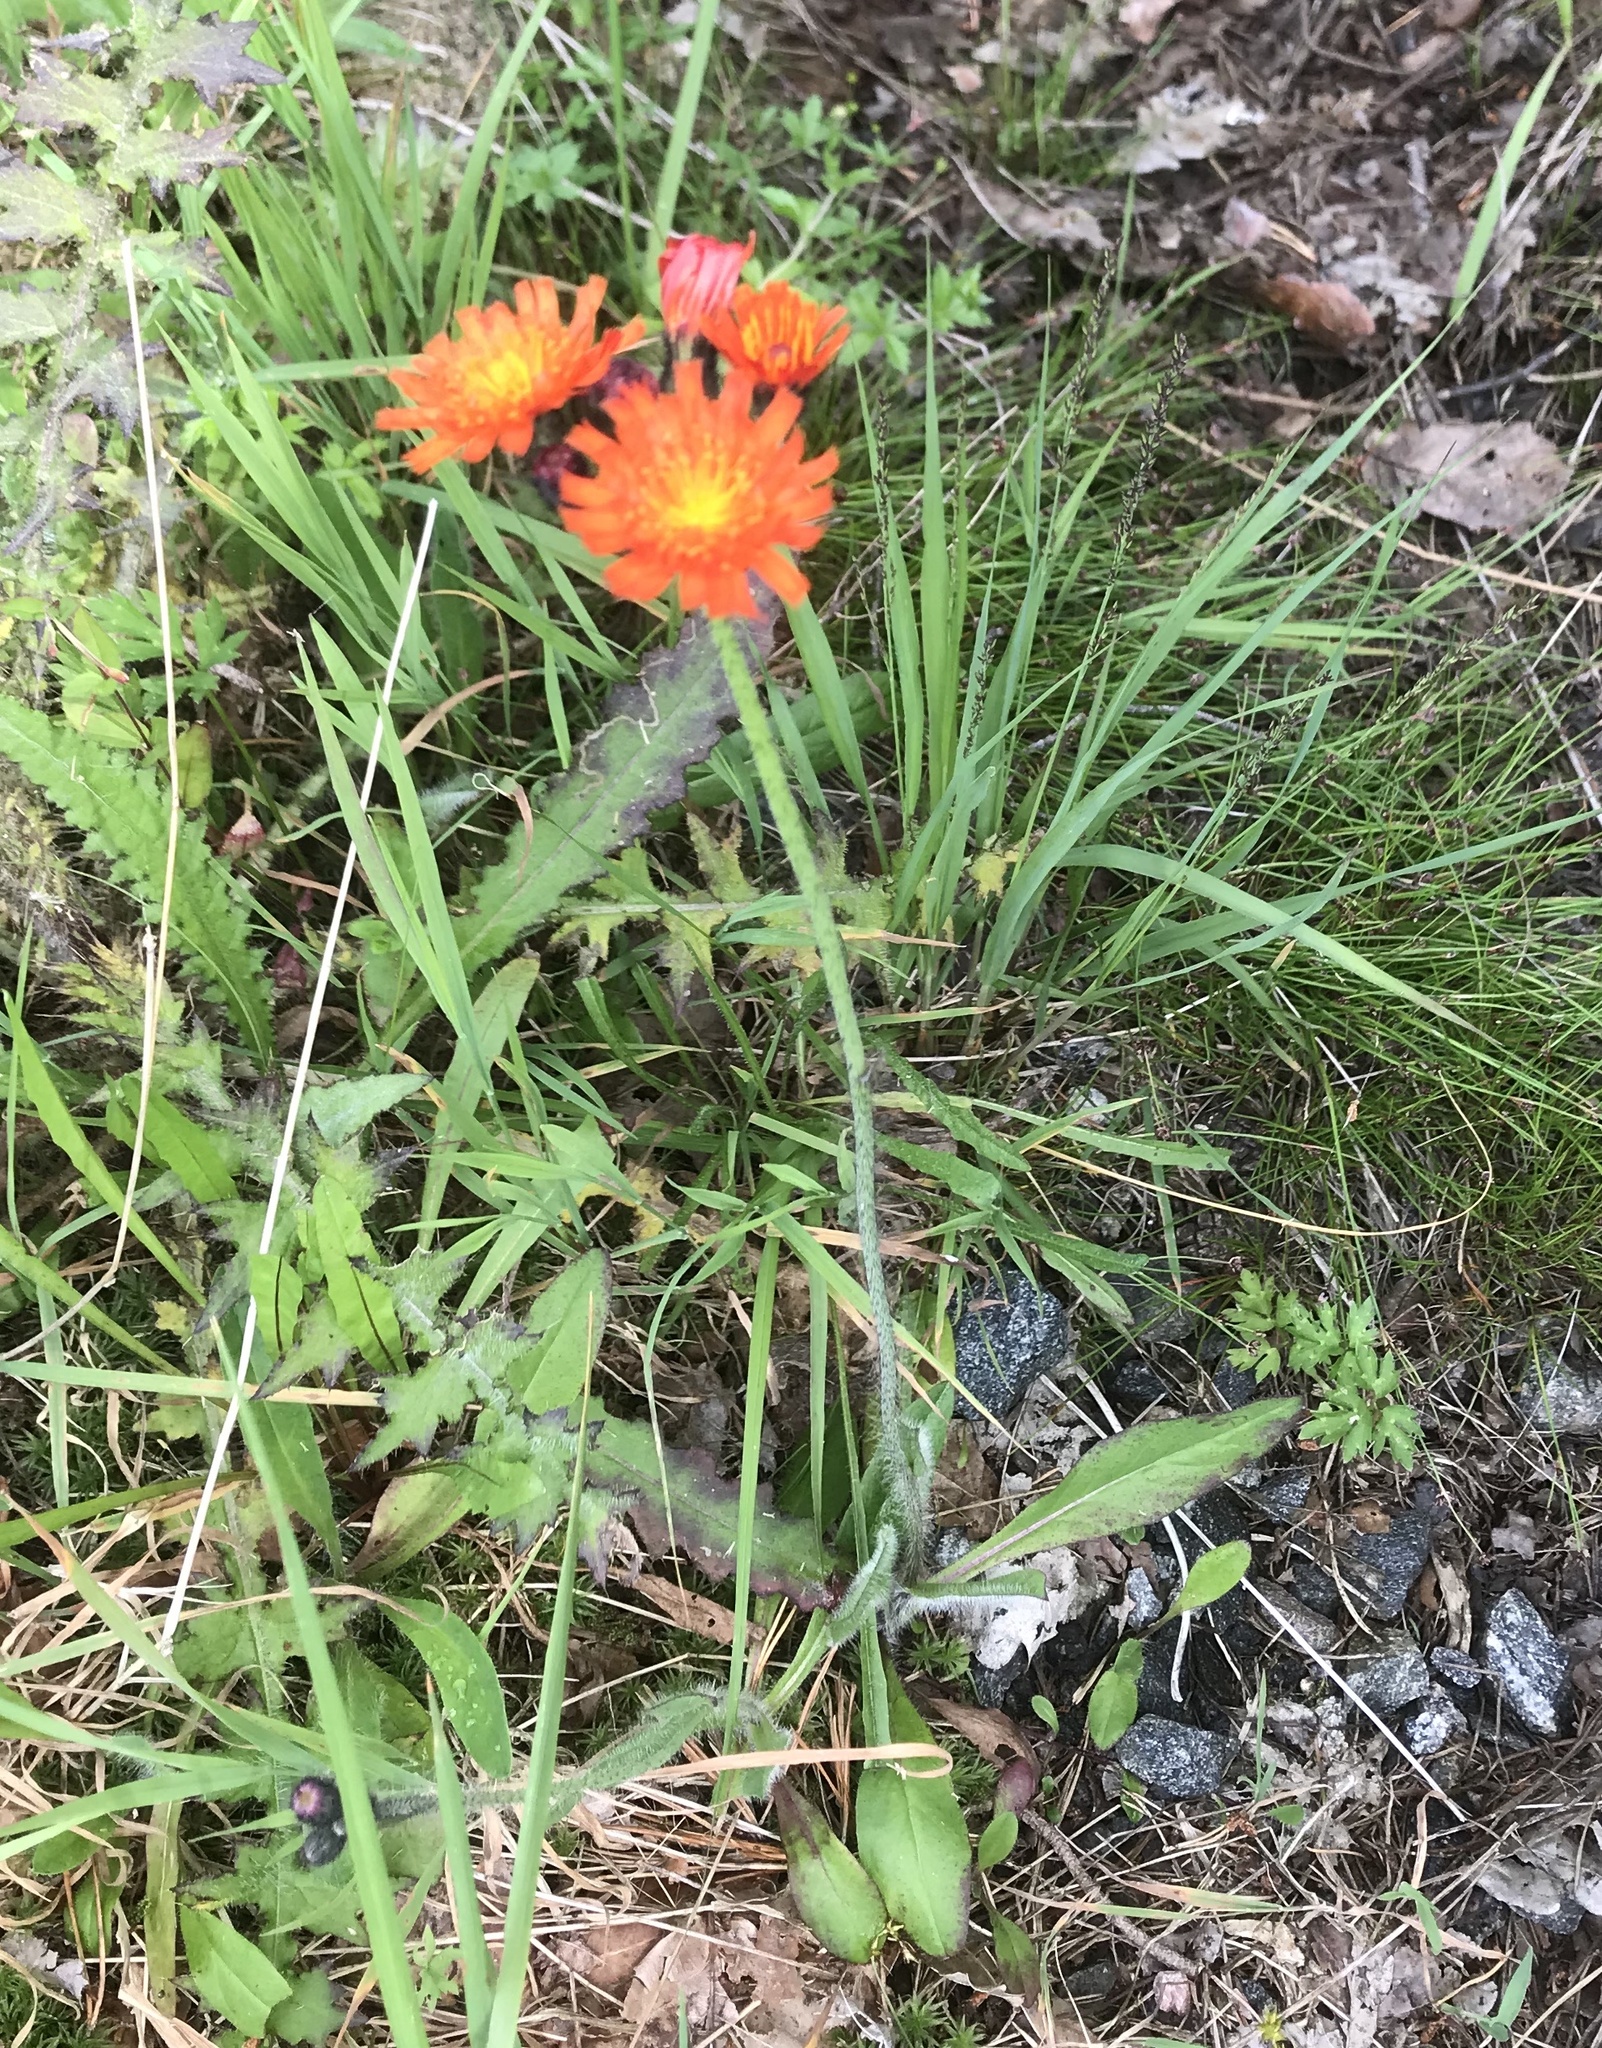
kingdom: Plantae
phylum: Tracheophyta
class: Magnoliopsida
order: Asterales
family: Asteraceae
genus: Pilosella
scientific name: Pilosella aurantiaca
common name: Fox-and-cubs
